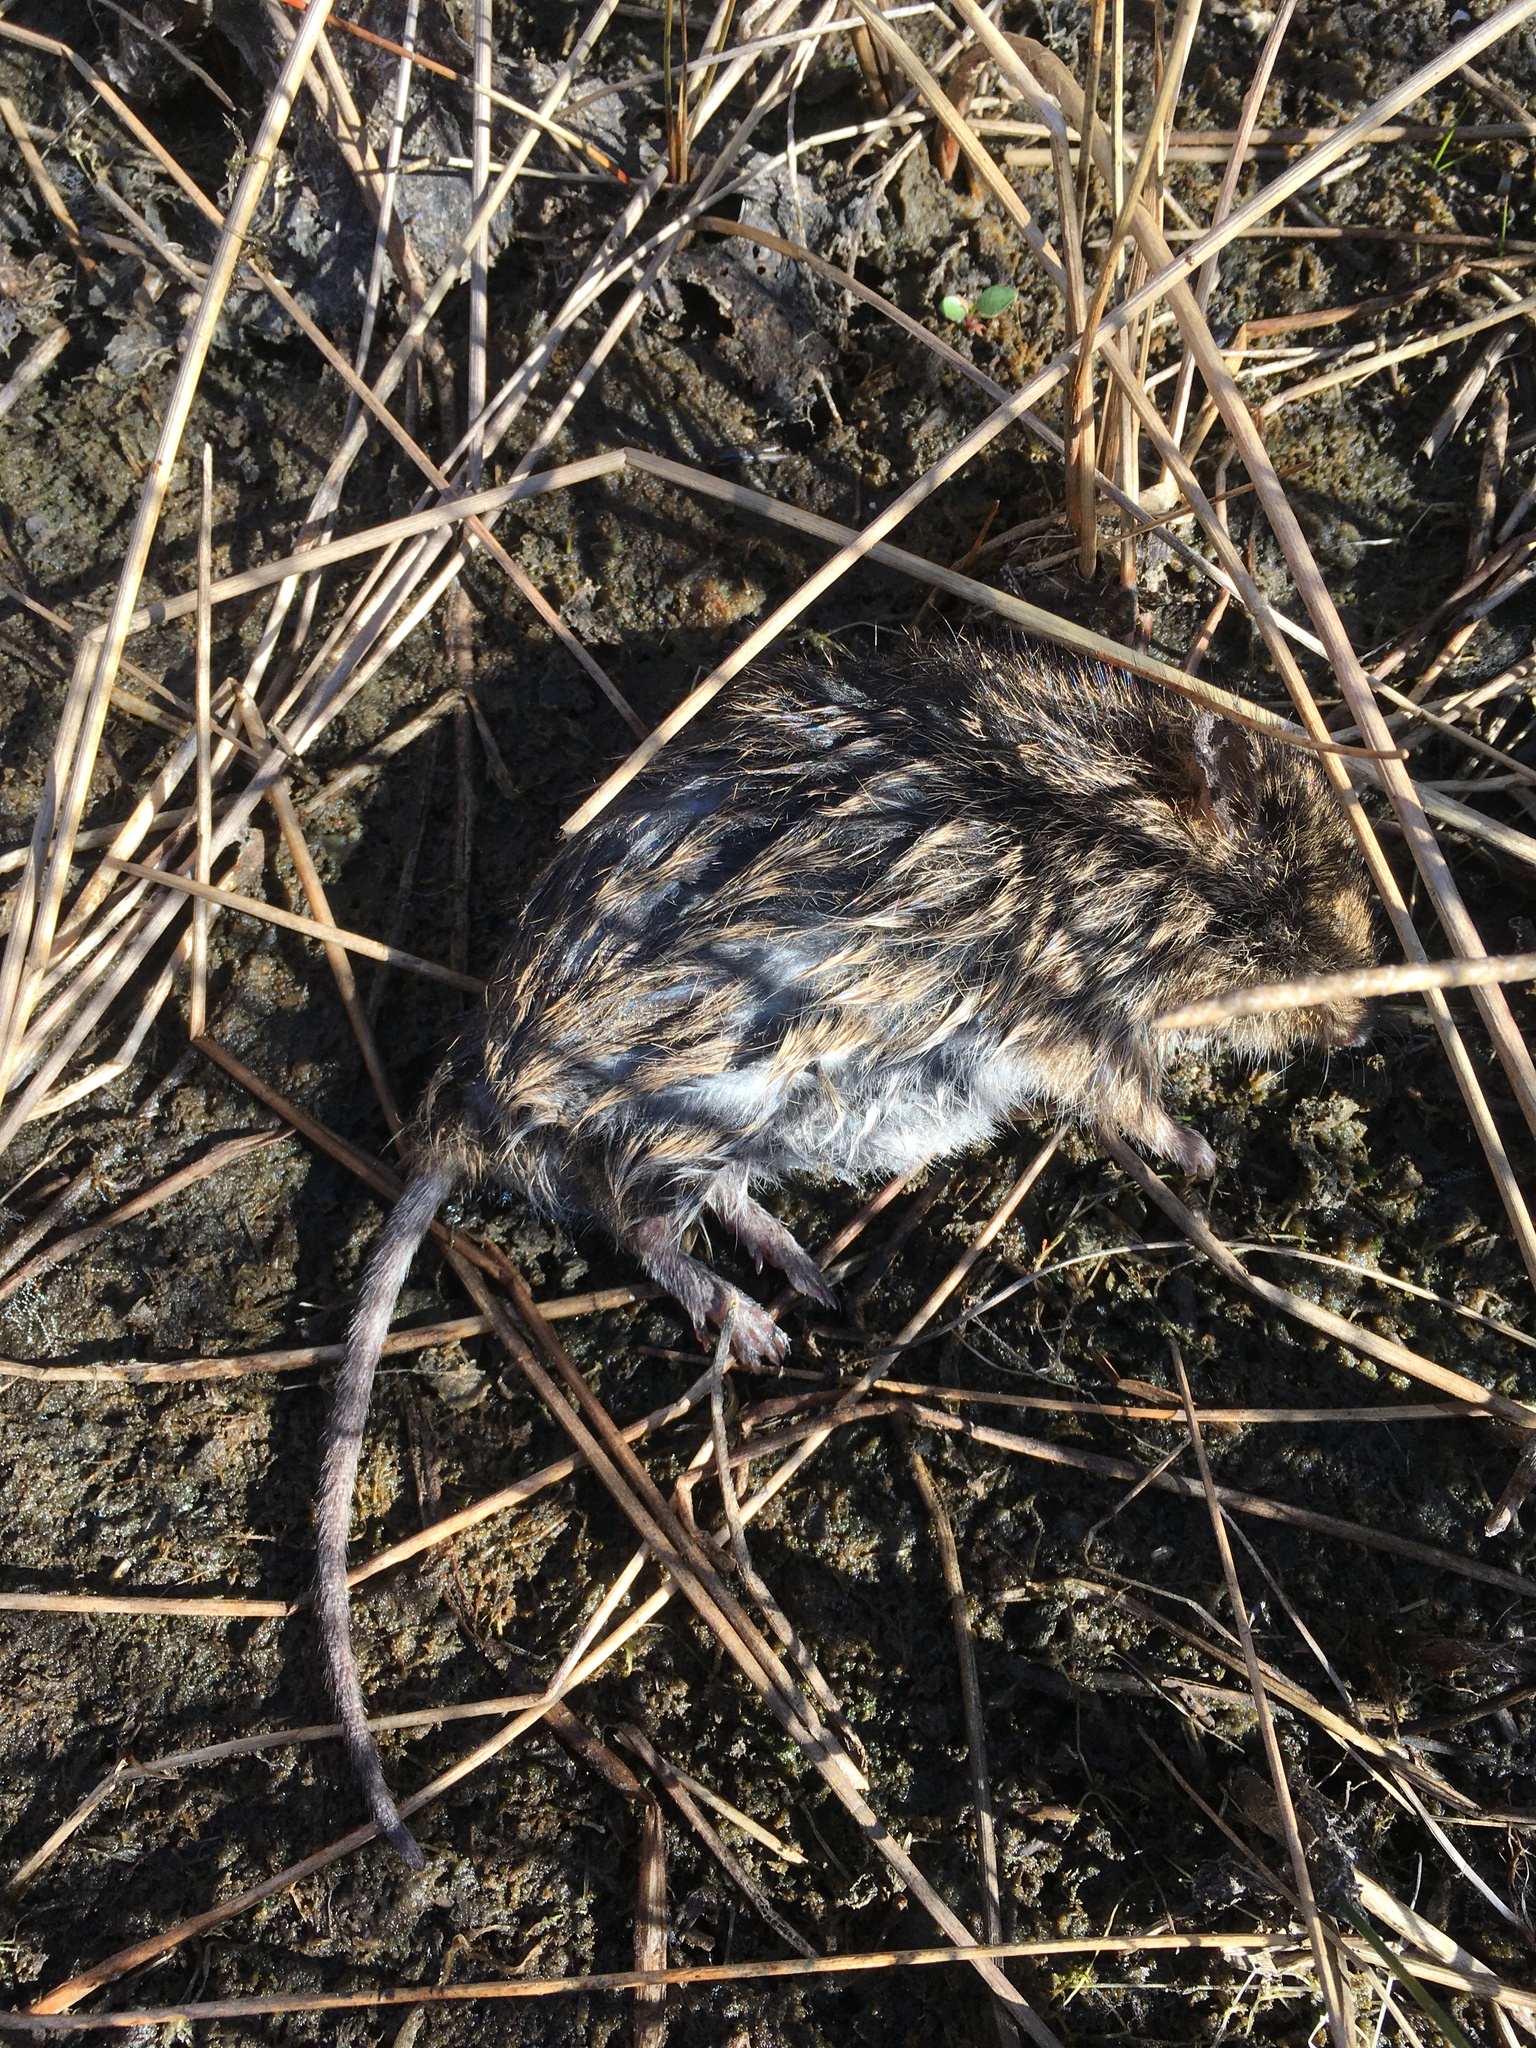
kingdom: Animalia
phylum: Chordata
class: Mammalia
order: Rodentia
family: Cricetidae
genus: Sigmodon
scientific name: Sigmodon hispidus
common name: Hispid cotton rat
